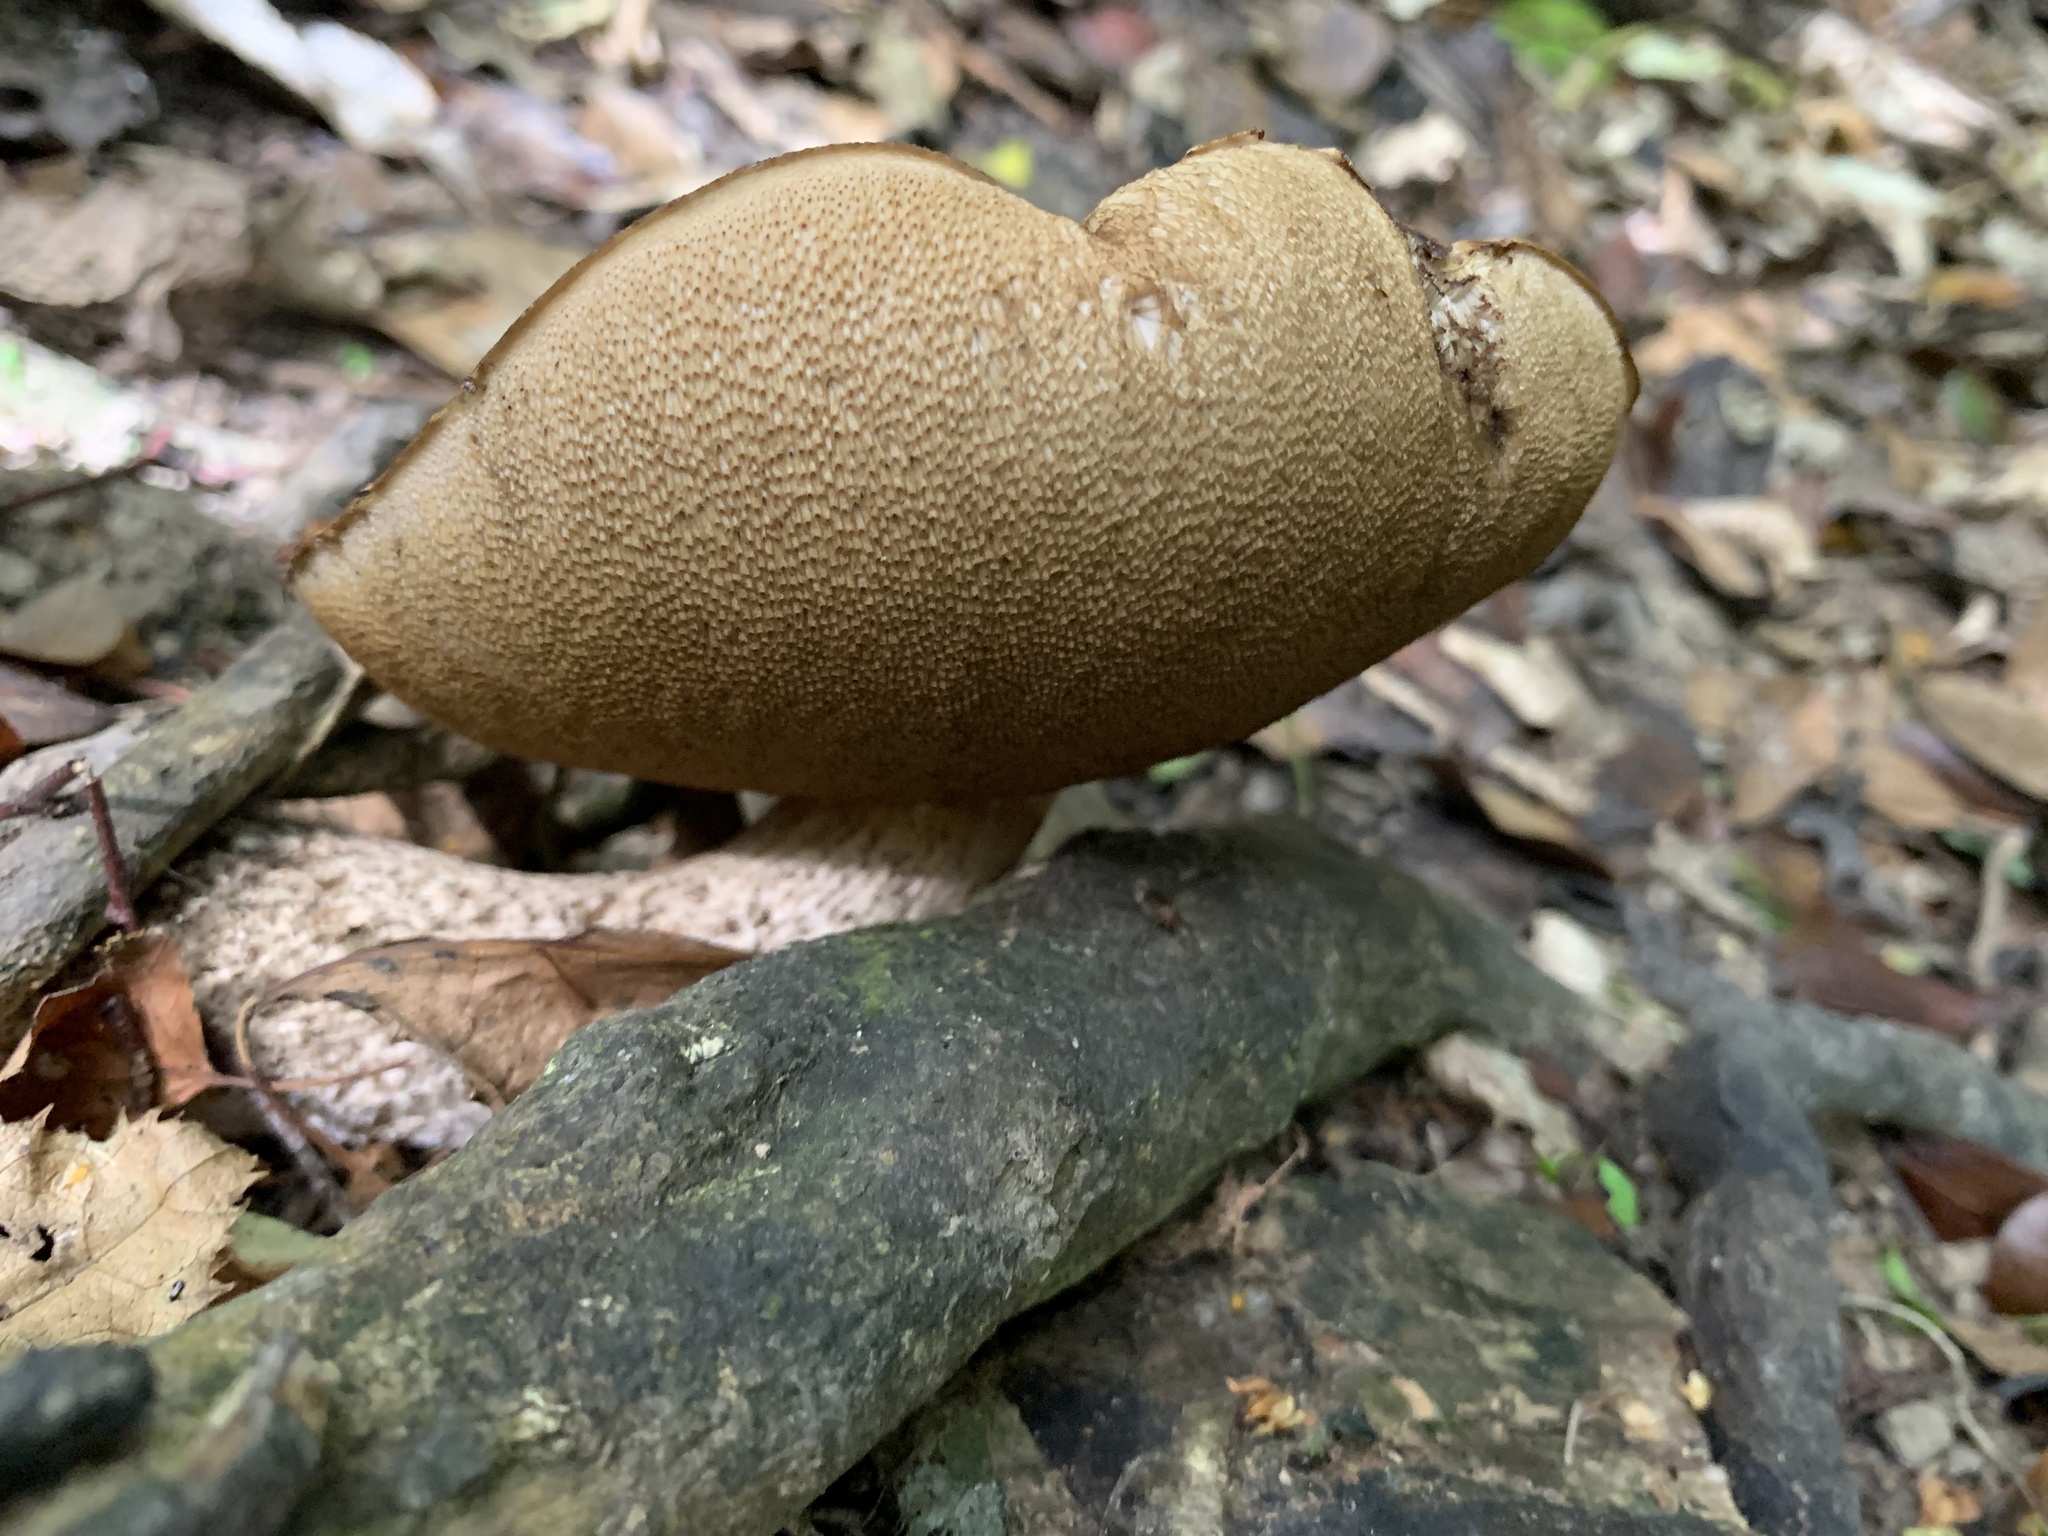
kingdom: Fungi
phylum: Basidiomycota
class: Agaricomycetes
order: Boletales
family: Boletaceae
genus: Leccinum
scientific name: Leccinum scabrum
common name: Blushing bolete
